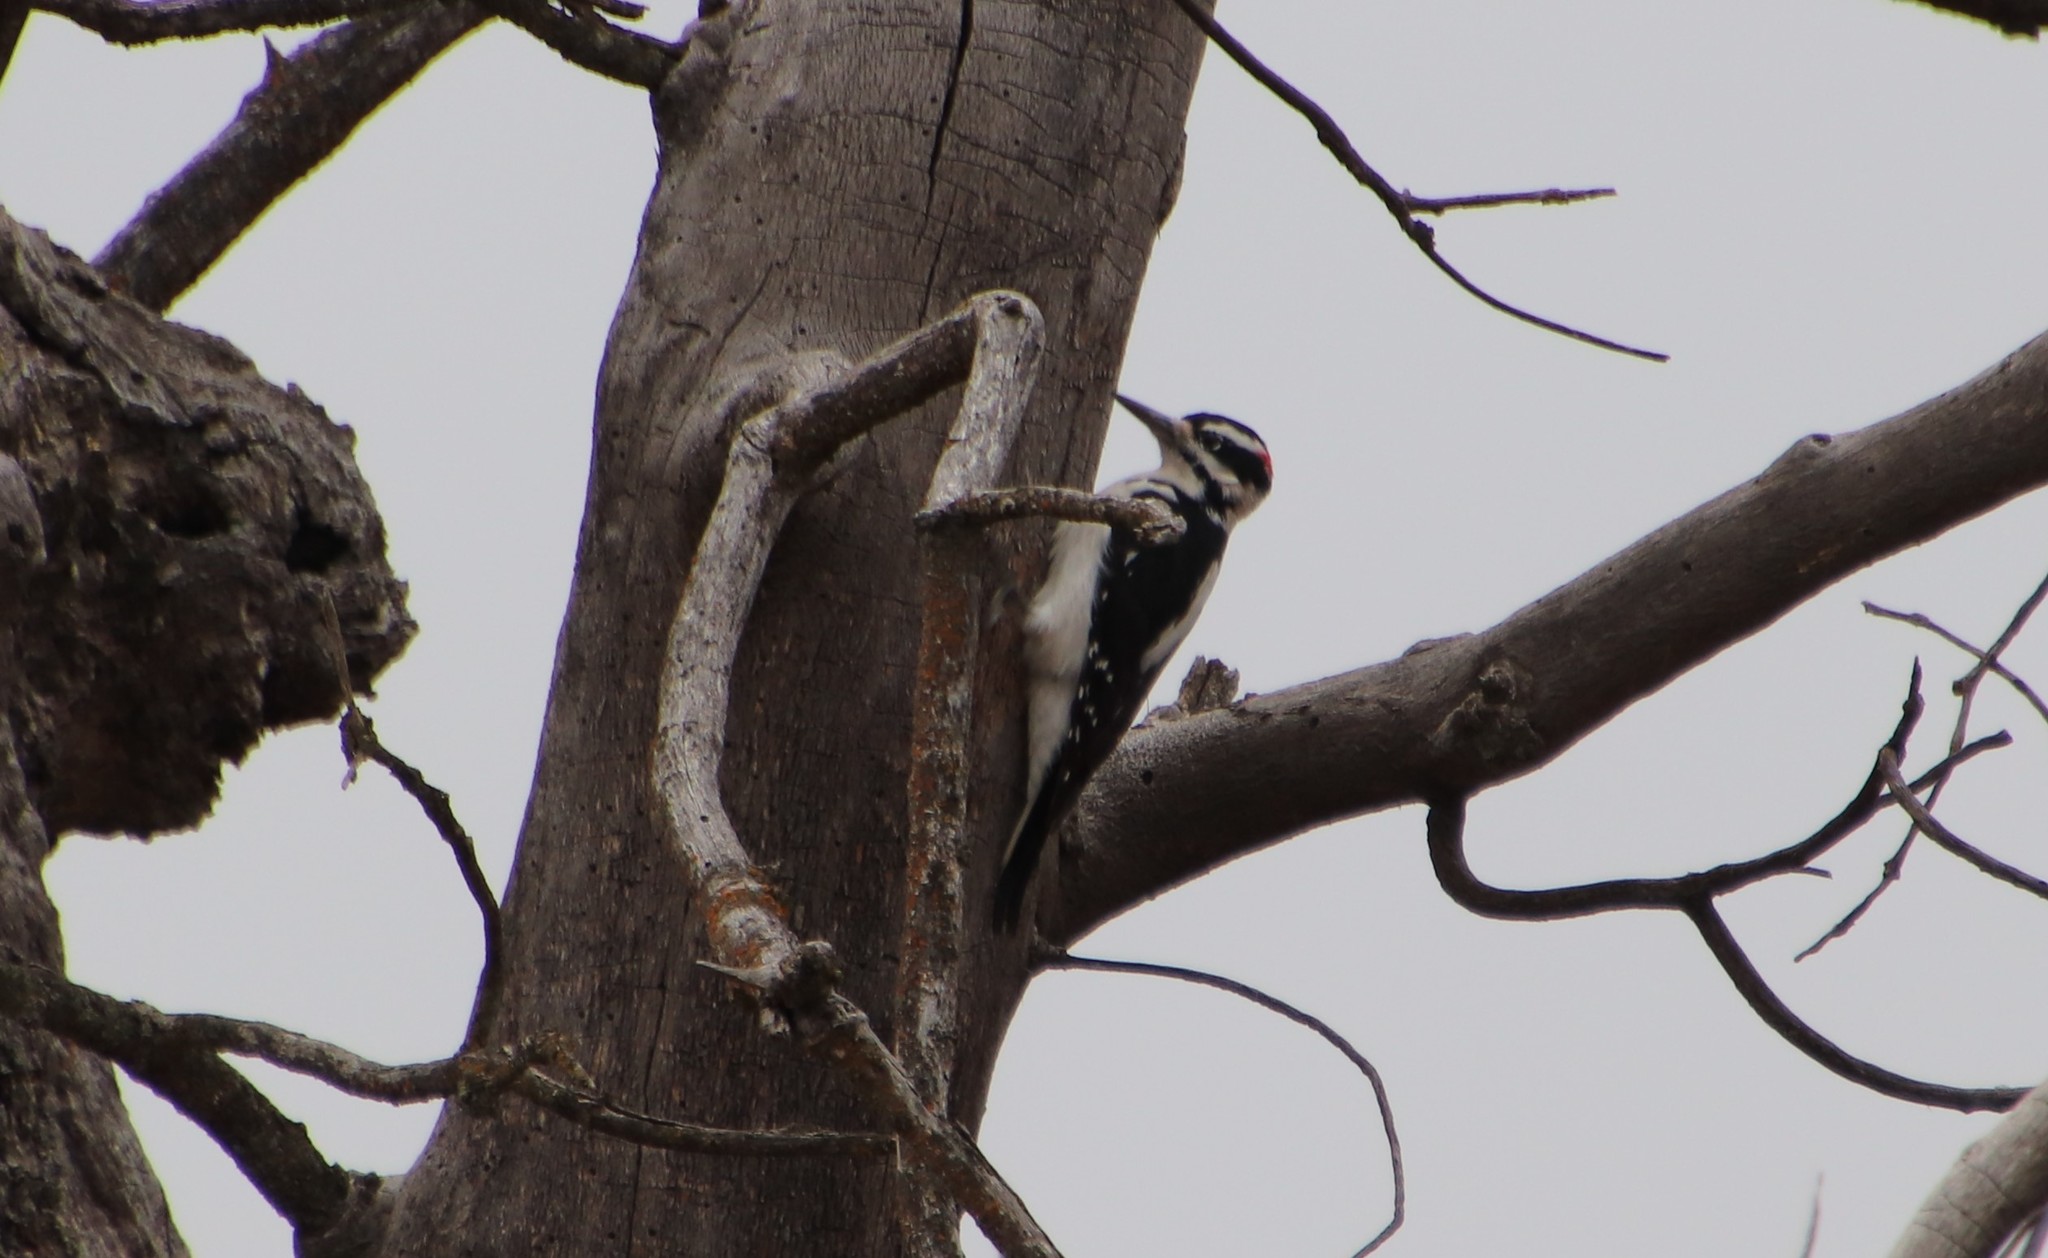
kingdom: Animalia
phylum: Chordata
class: Aves
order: Piciformes
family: Picidae
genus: Leuconotopicus
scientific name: Leuconotopicus villosus
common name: Hairy woodpecker
